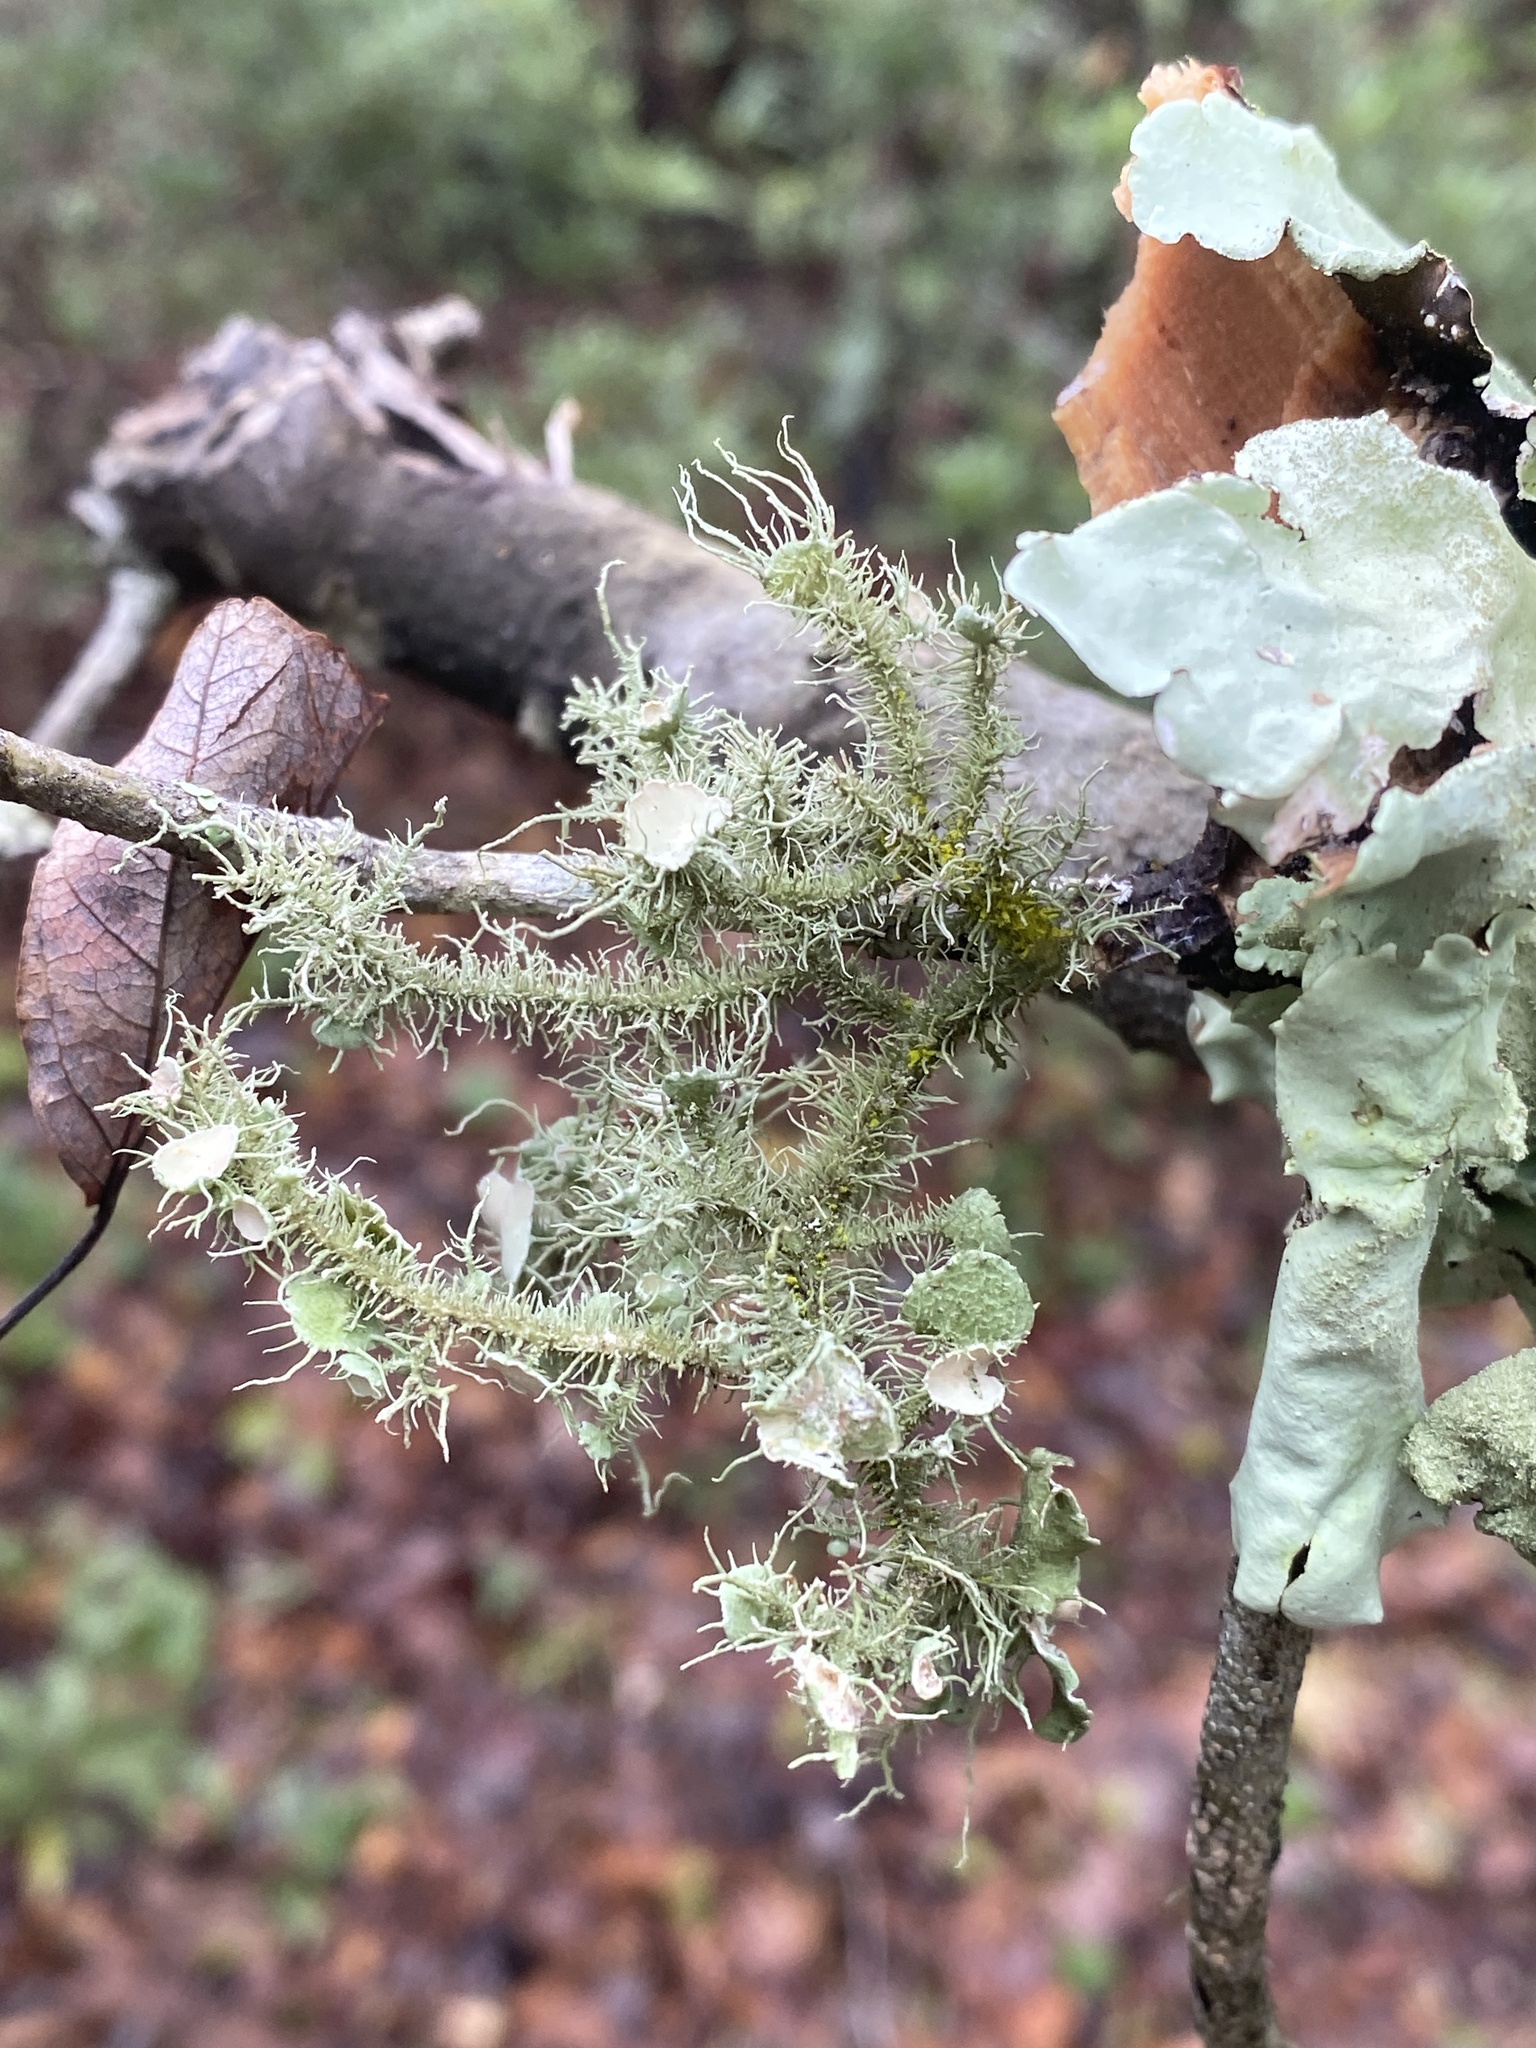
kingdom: Fungi
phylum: Ascomycota
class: Lecanoromycetes
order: Lecanorales
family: Parmeliaceae
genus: Usnea
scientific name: Usnea evansii
